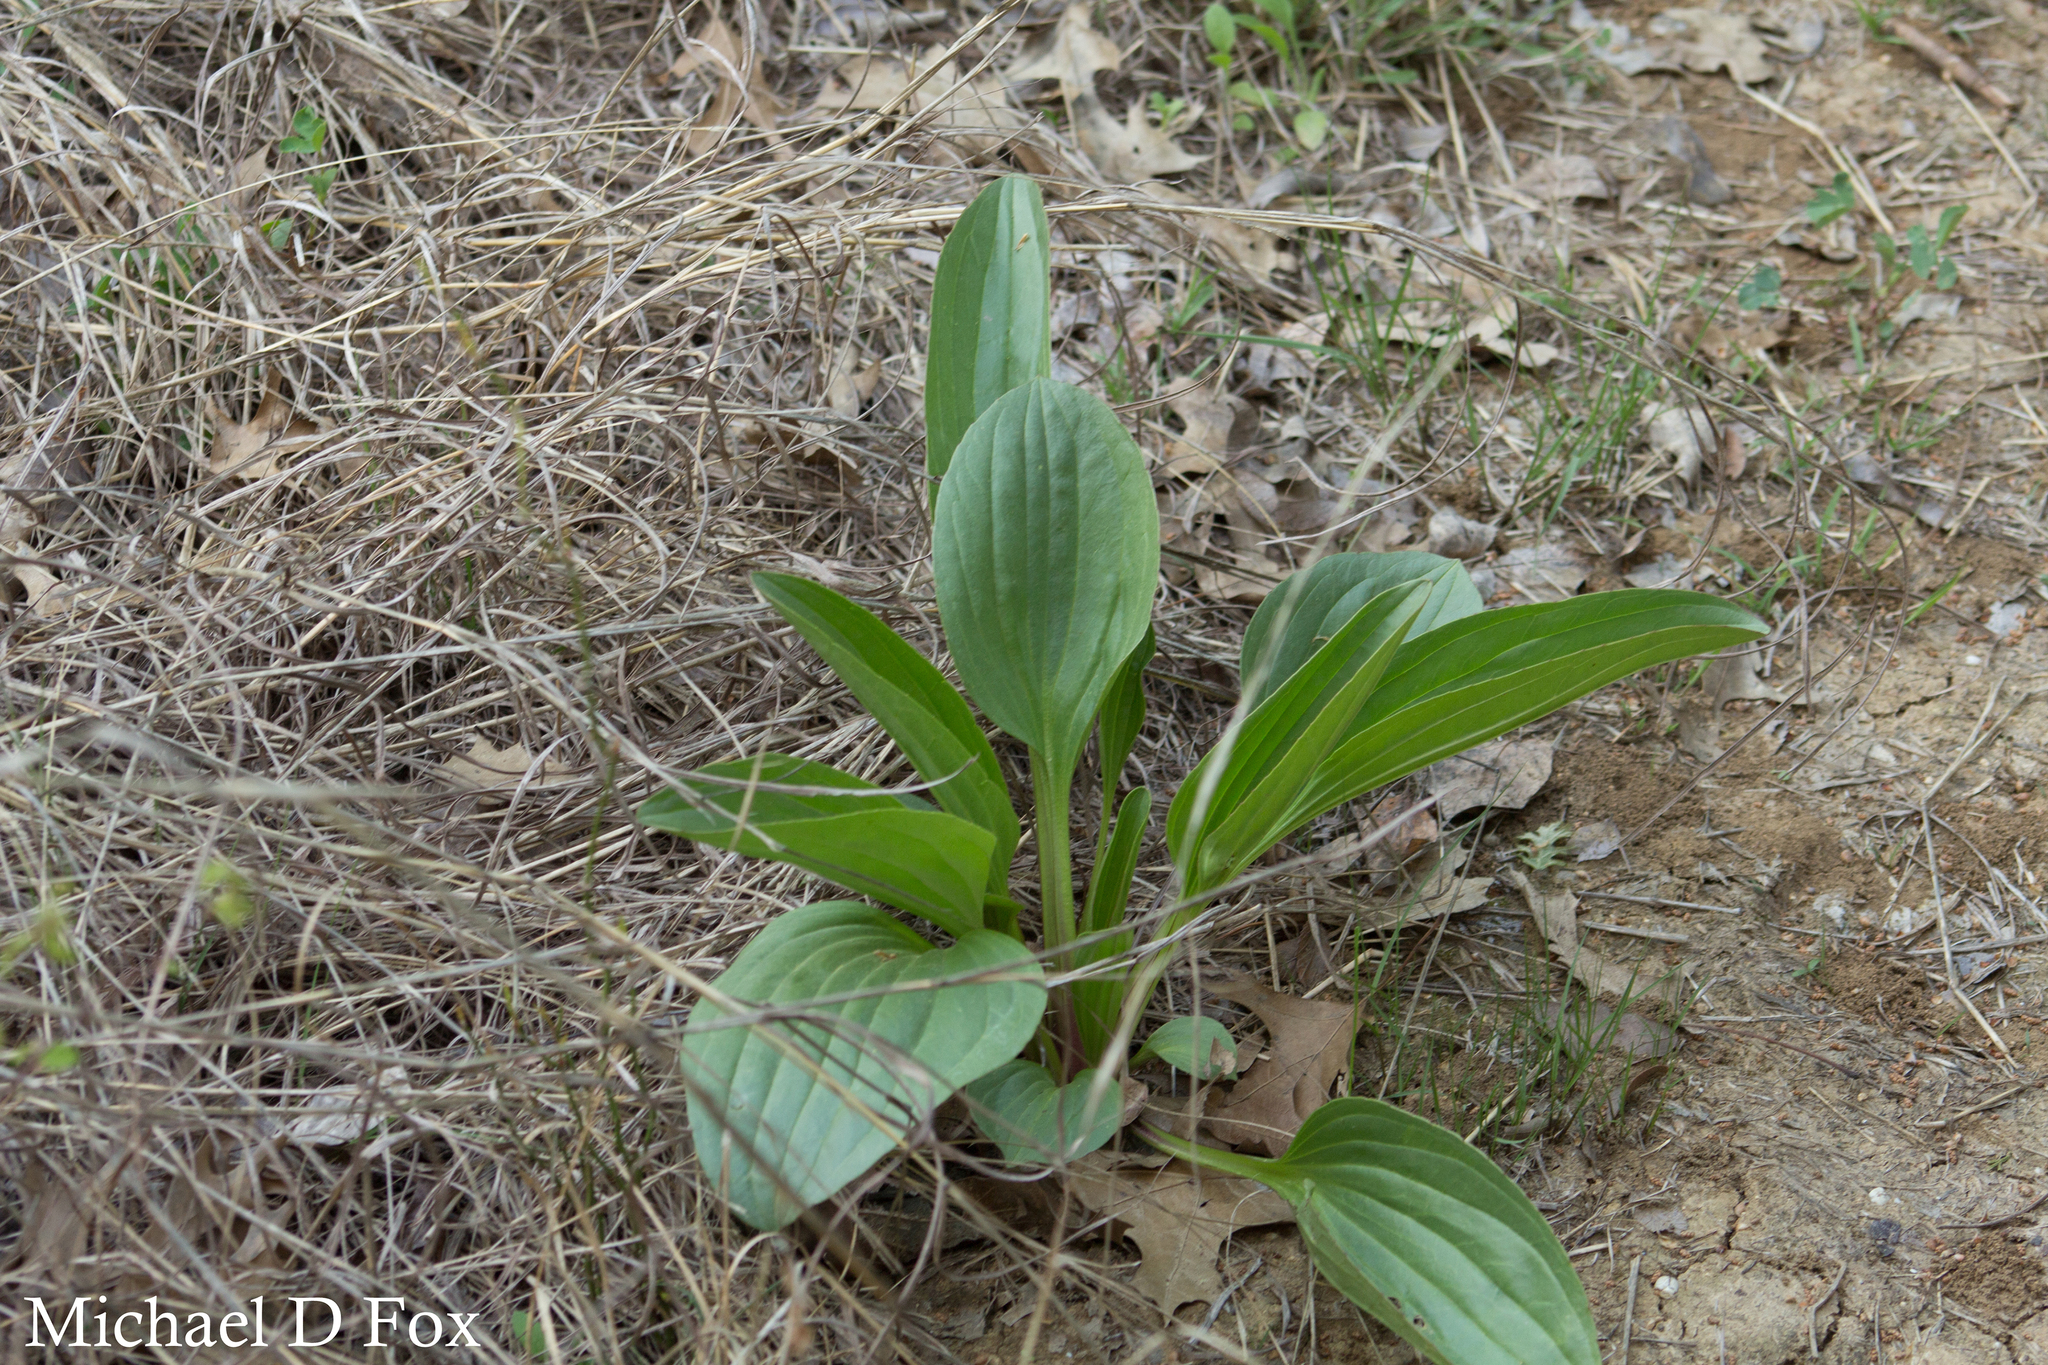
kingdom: Plantae
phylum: Tracheophyta
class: Magnoliopsida
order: Asterales
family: Asteraceae
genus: Arnoglossum
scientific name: Arnoglossum plantagineum
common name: Groove-stemmed indian-plantain
